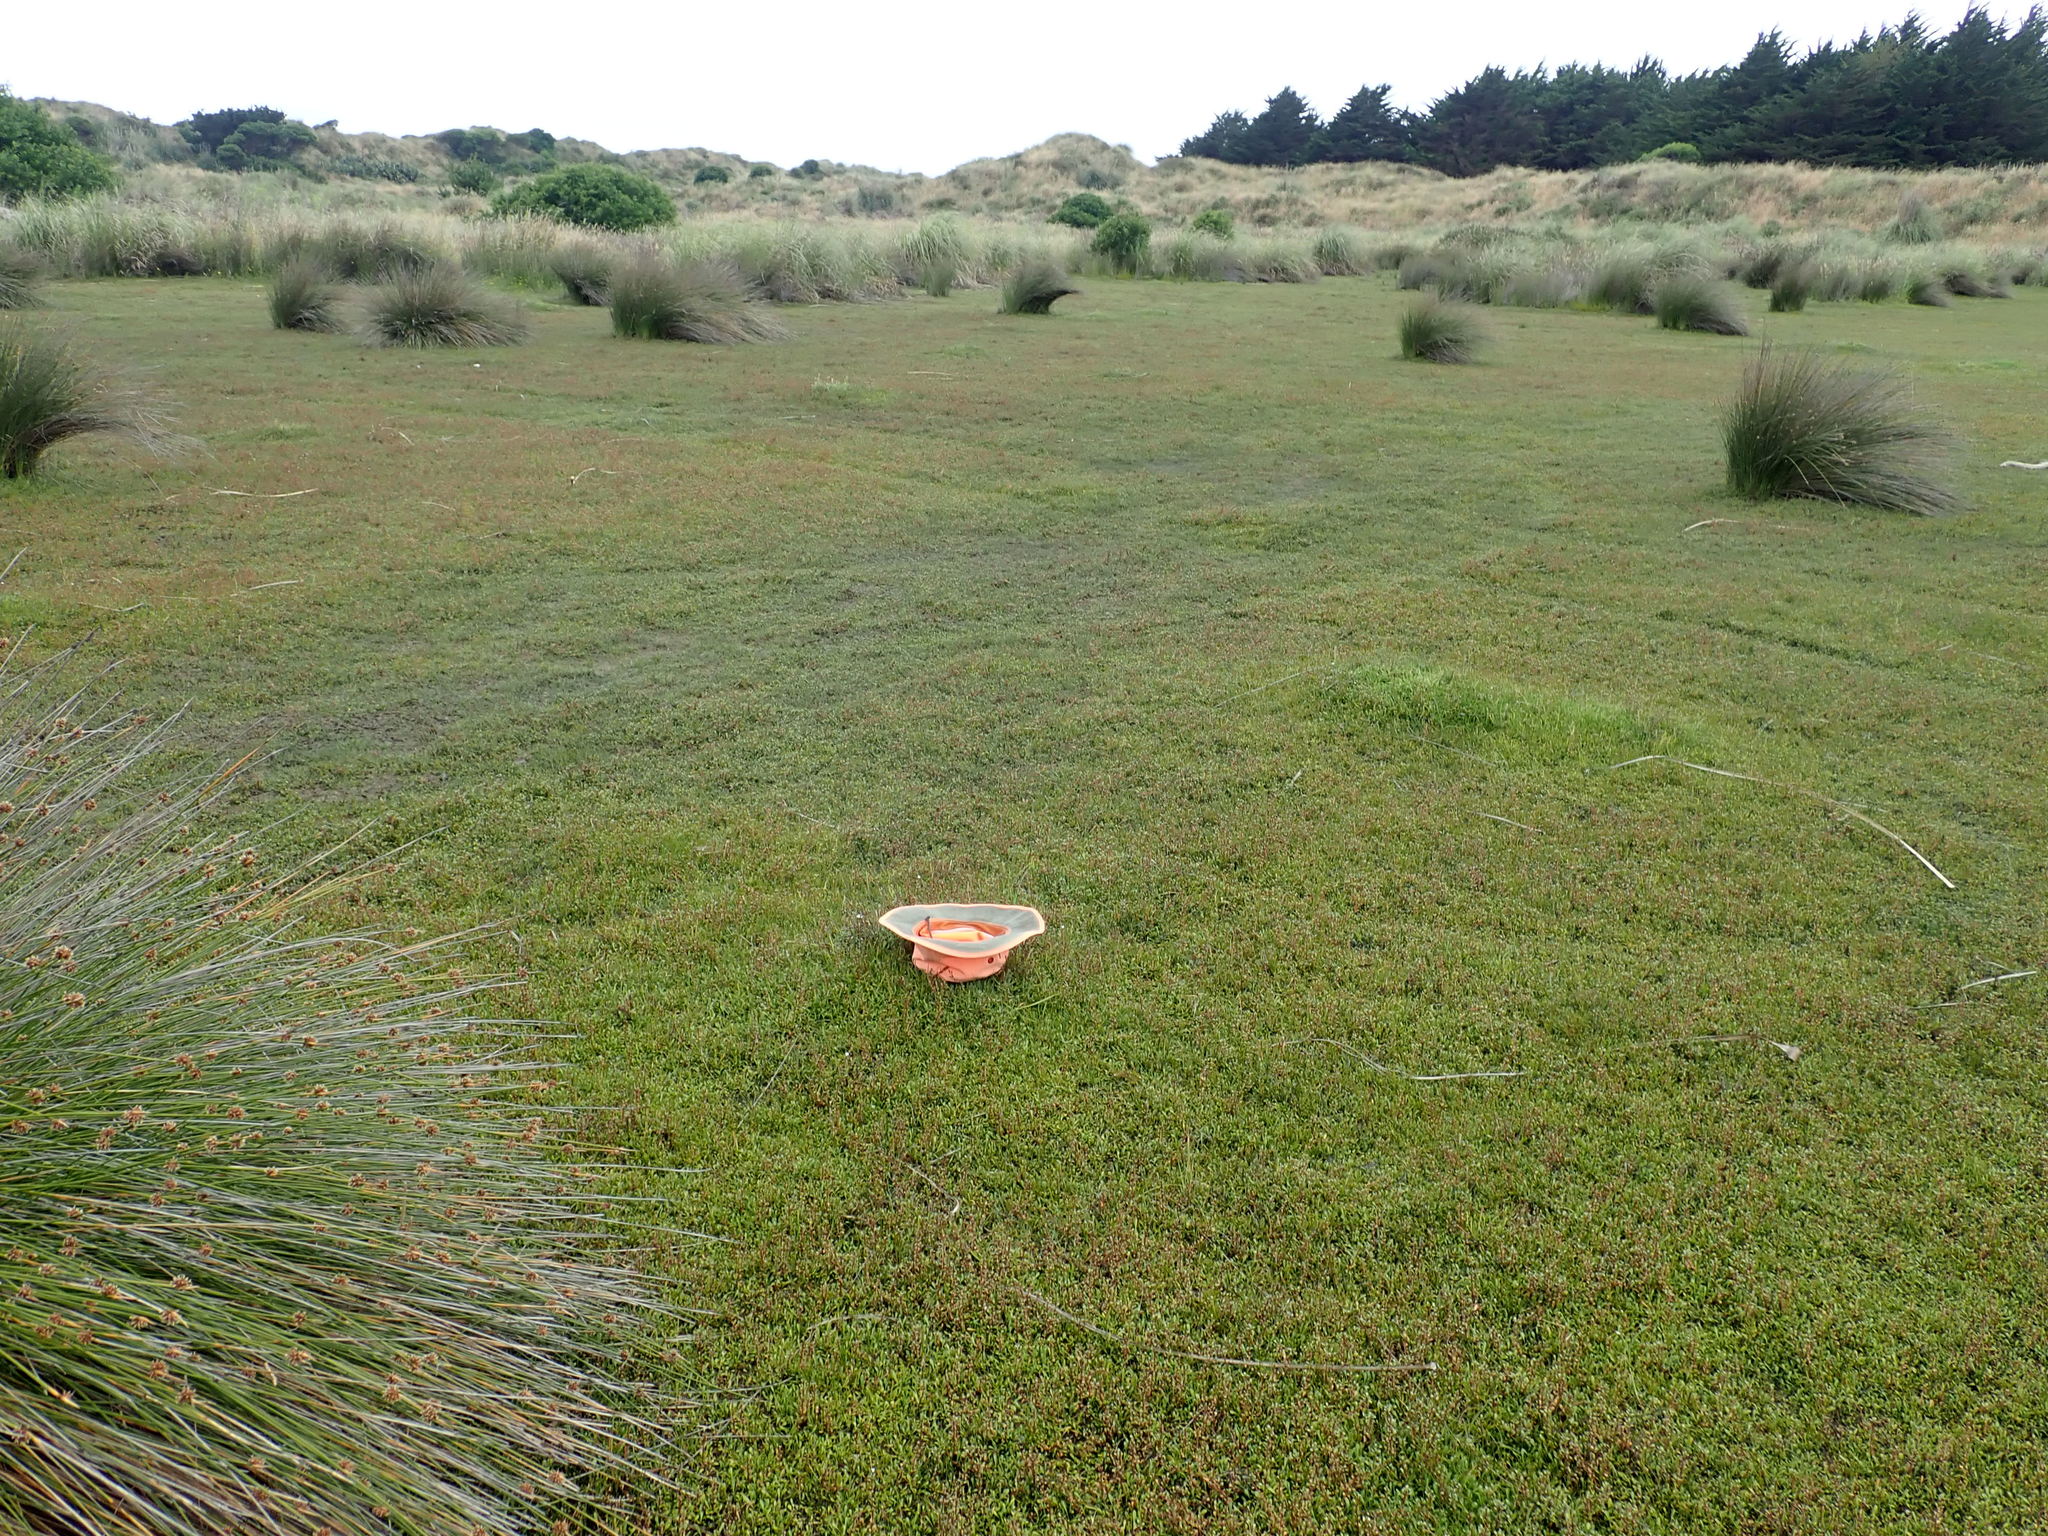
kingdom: Plantae
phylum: Tracheophyta
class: Magnoliopsida
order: Asterales
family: Goodeniaceae
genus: Goodenia
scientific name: Goodenia radicans
